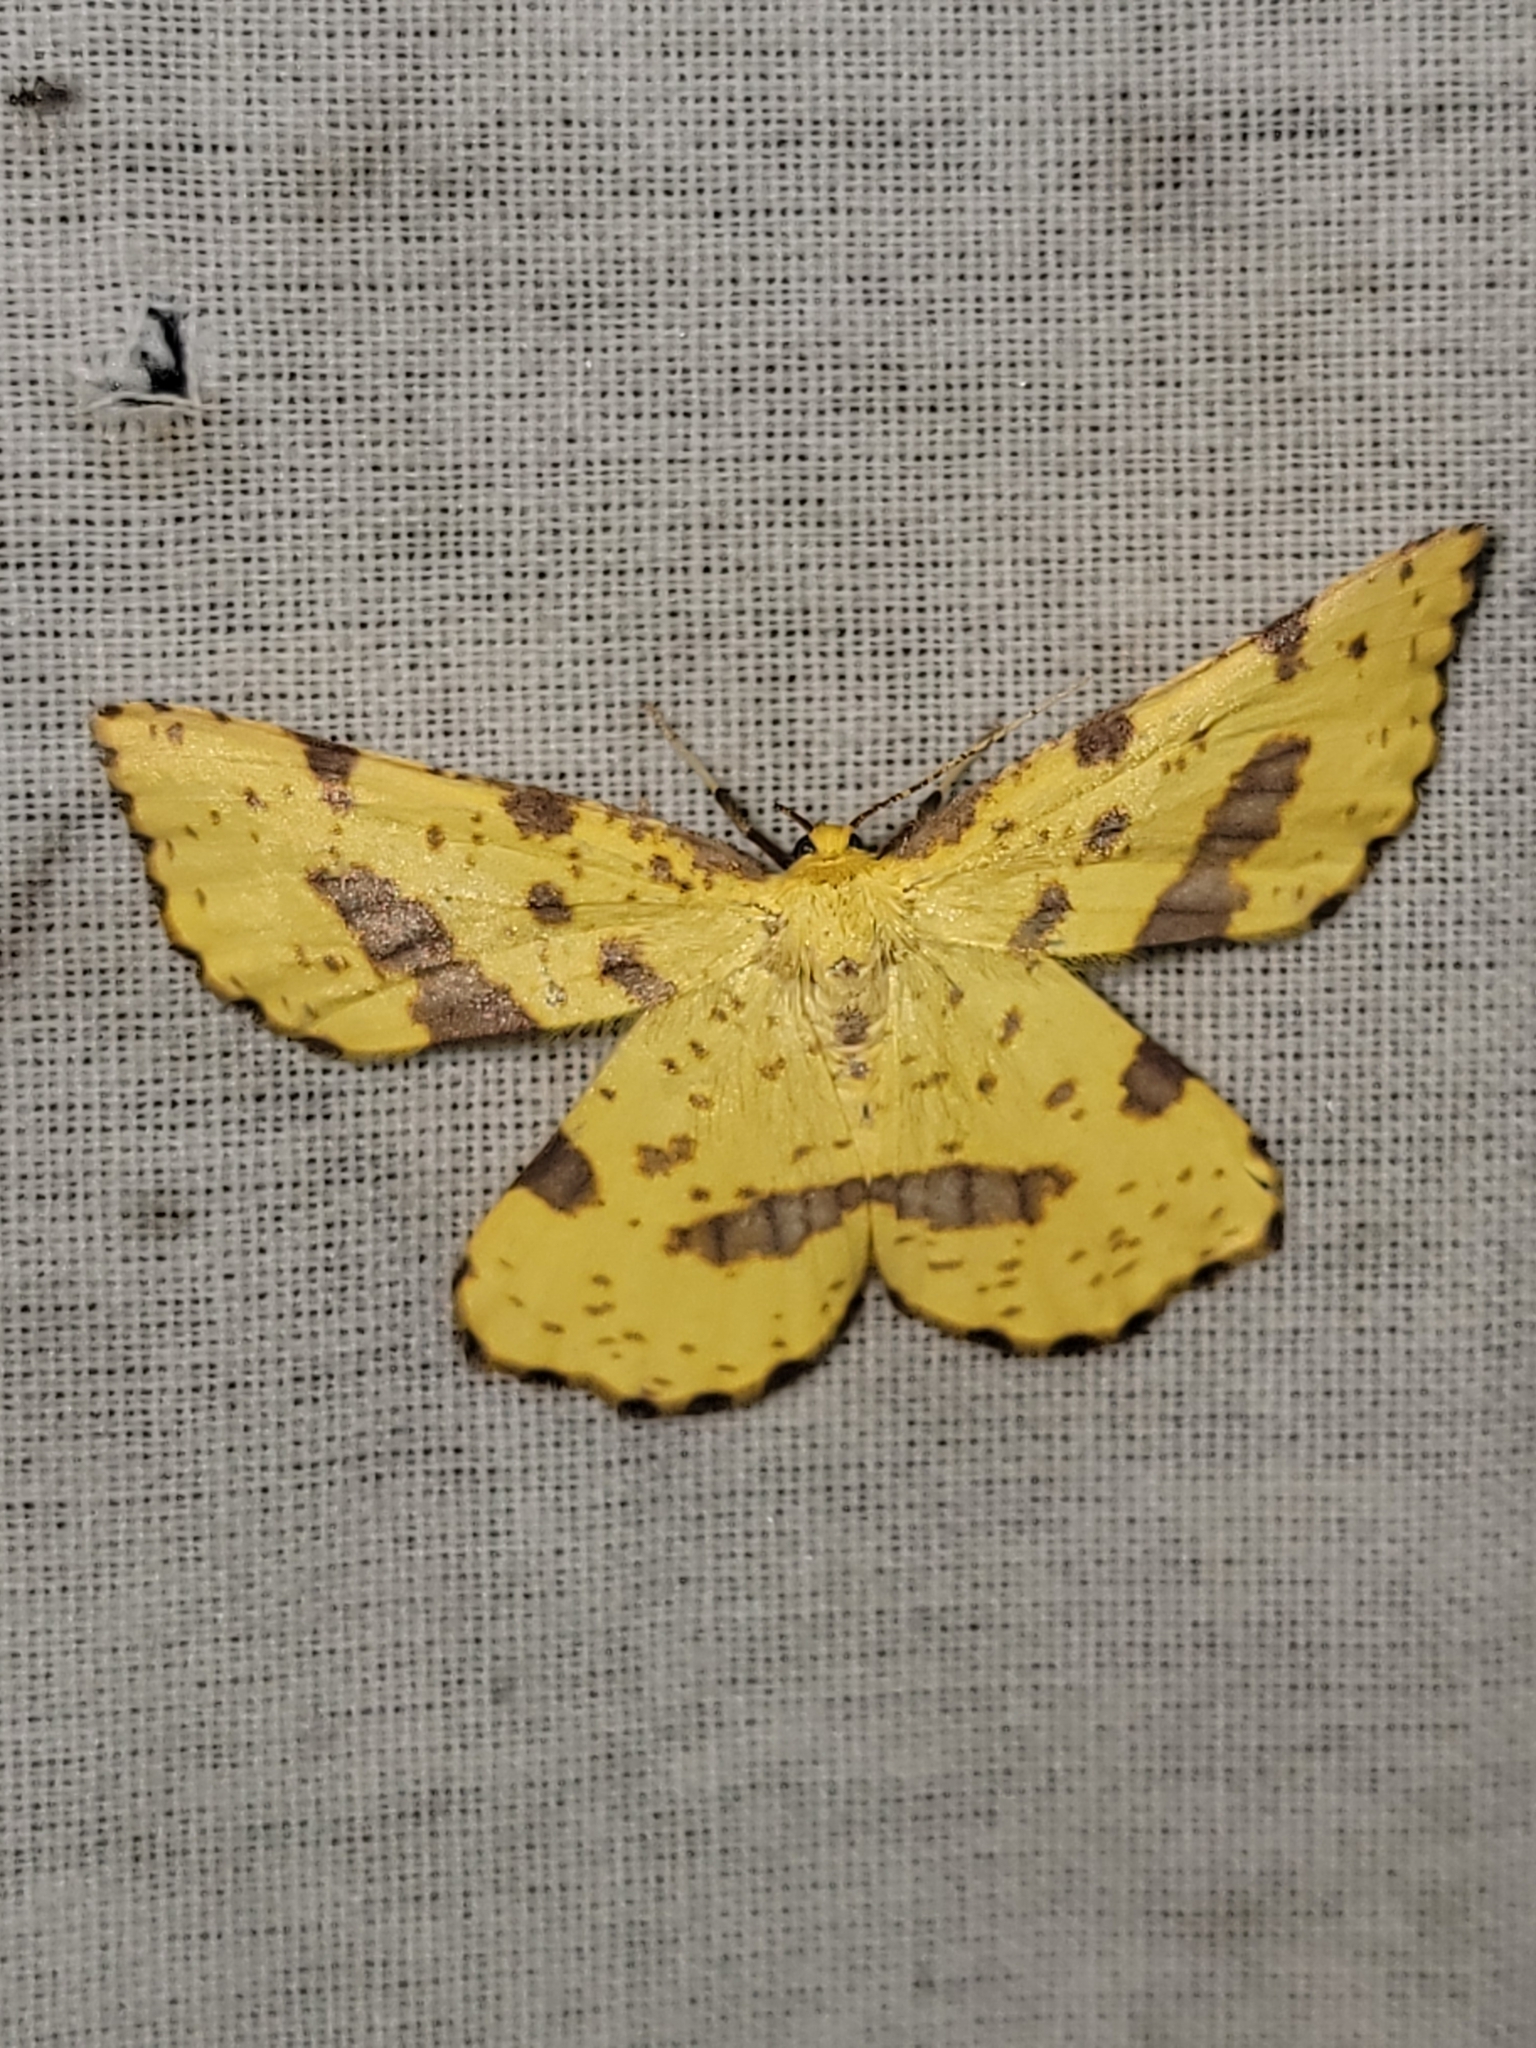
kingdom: Animalia
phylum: Arthropoda
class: Insecta
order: Lepidoptera
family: Geometridae
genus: Xanthotype
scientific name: Xanthotype
